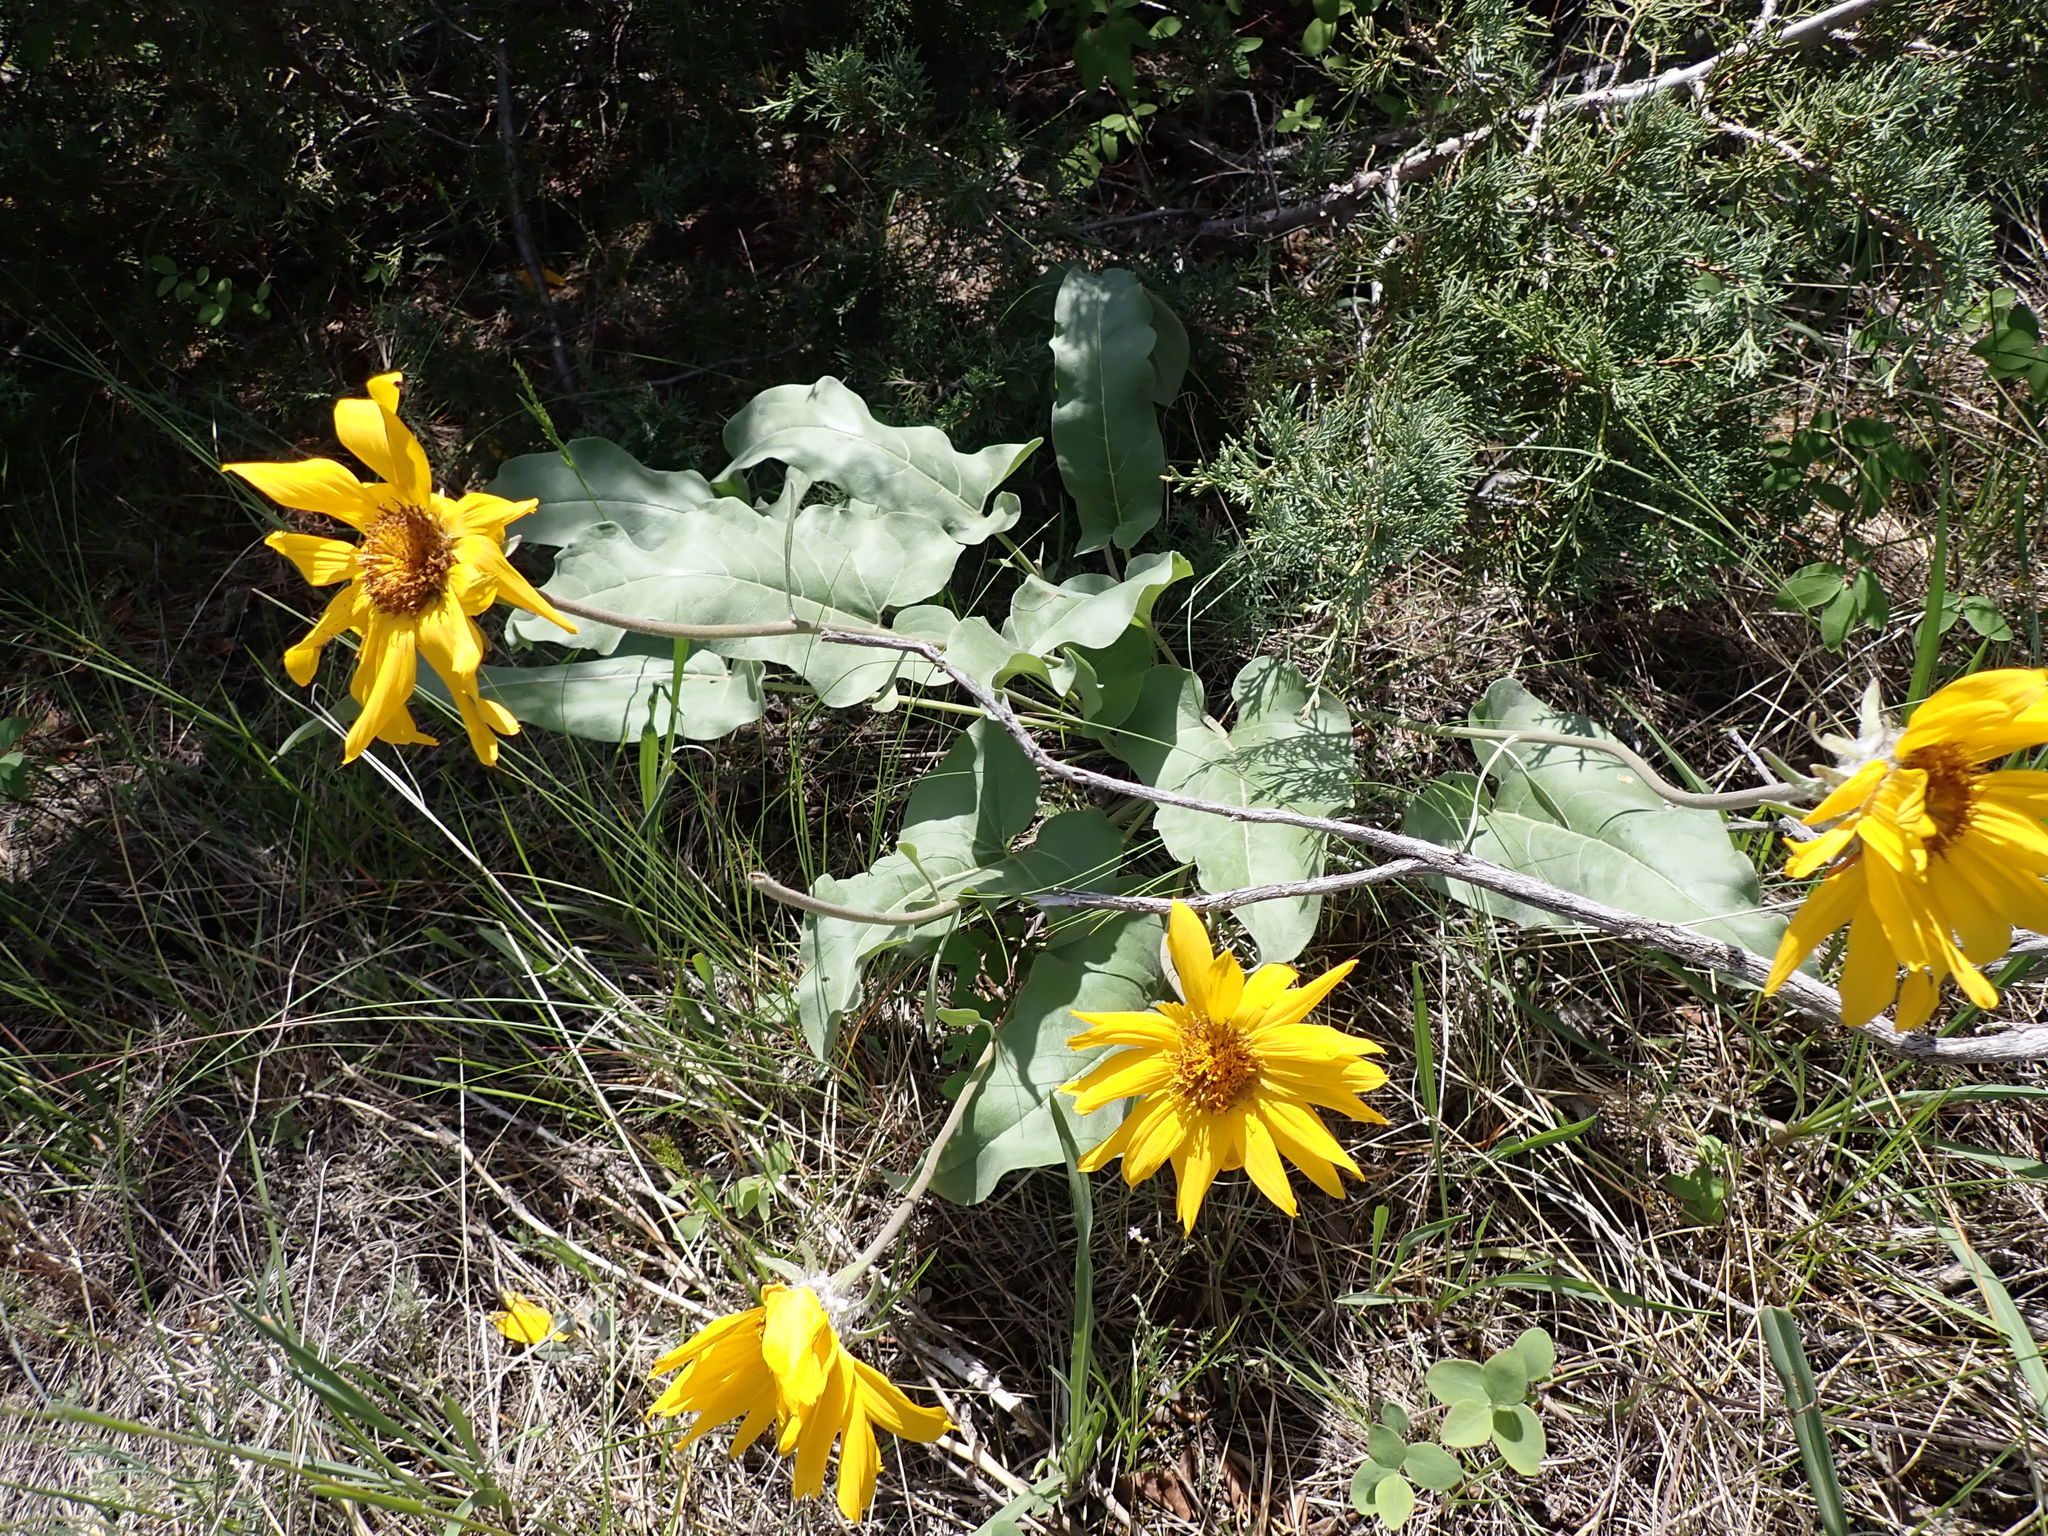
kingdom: Plantae
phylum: Tracheophyta
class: Magnoliopsida
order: Asterales
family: Asteraceae
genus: Wyethia
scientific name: Wyethia sagittata
